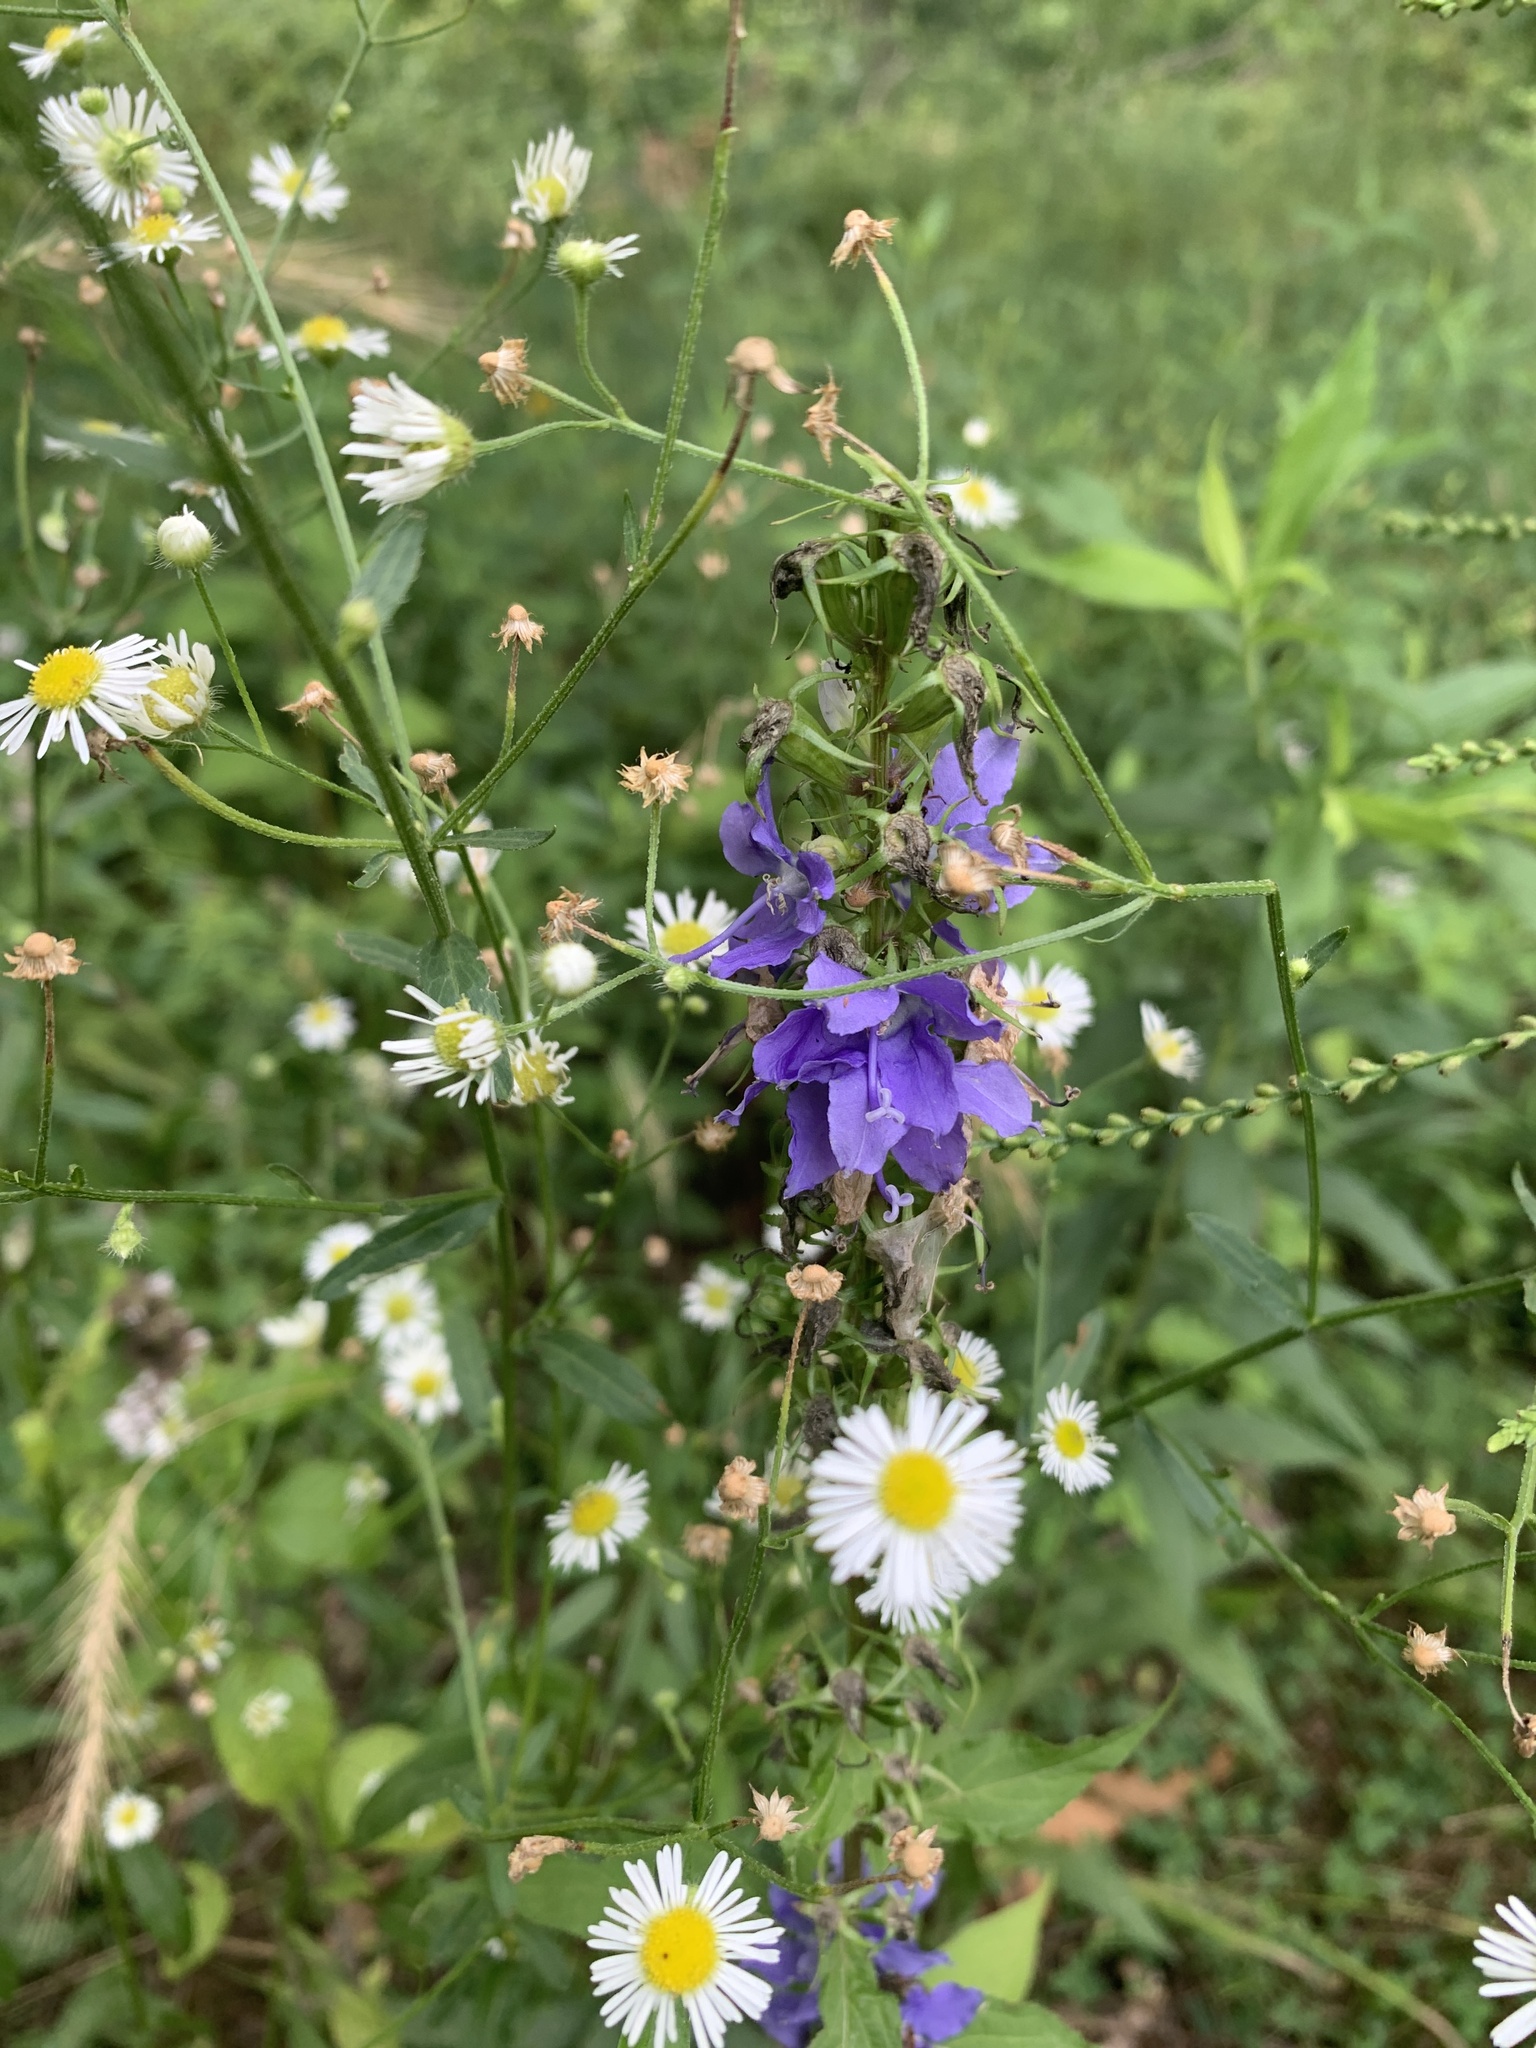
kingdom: Plantae
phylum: Tracheophyta
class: Magnoliopsida
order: Asterales
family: Campanulaceae
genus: Campanulastrum
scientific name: Campanulastrum americanum
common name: American bellflower
